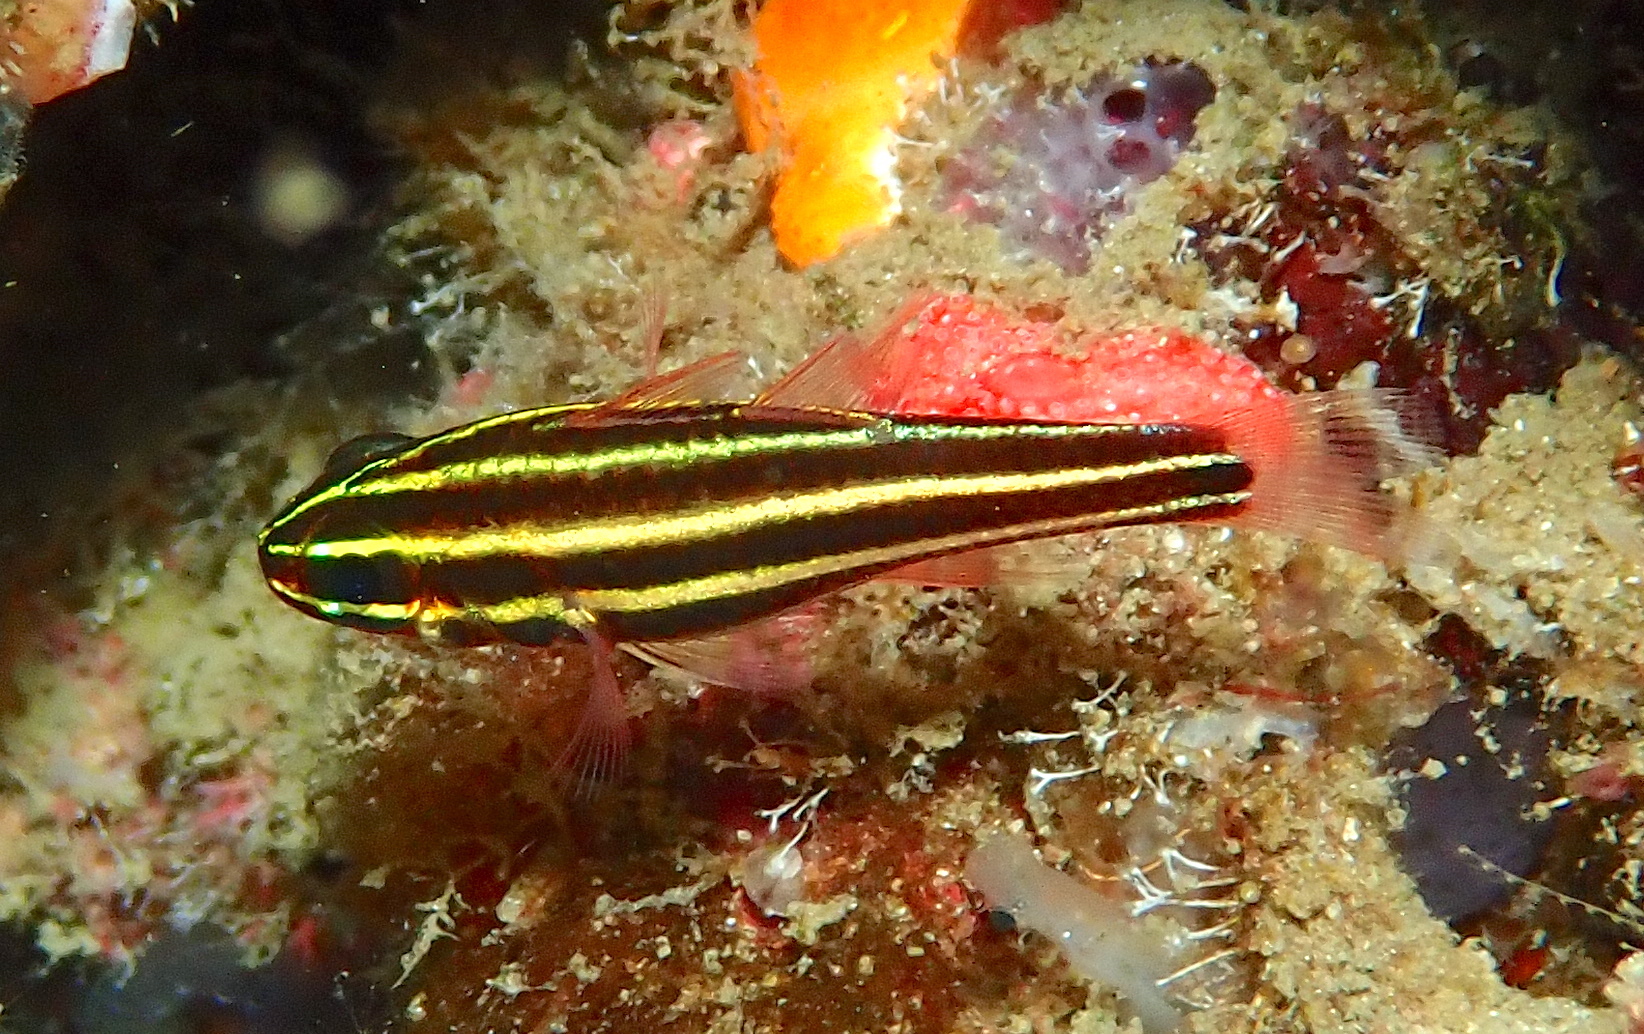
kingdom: Animalia
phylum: Chordata
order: Perciformes
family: Apogonidae
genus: Ostorhinchus
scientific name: Ostorhinchus nigrofasciatus
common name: Blackstripe cardinalfish
